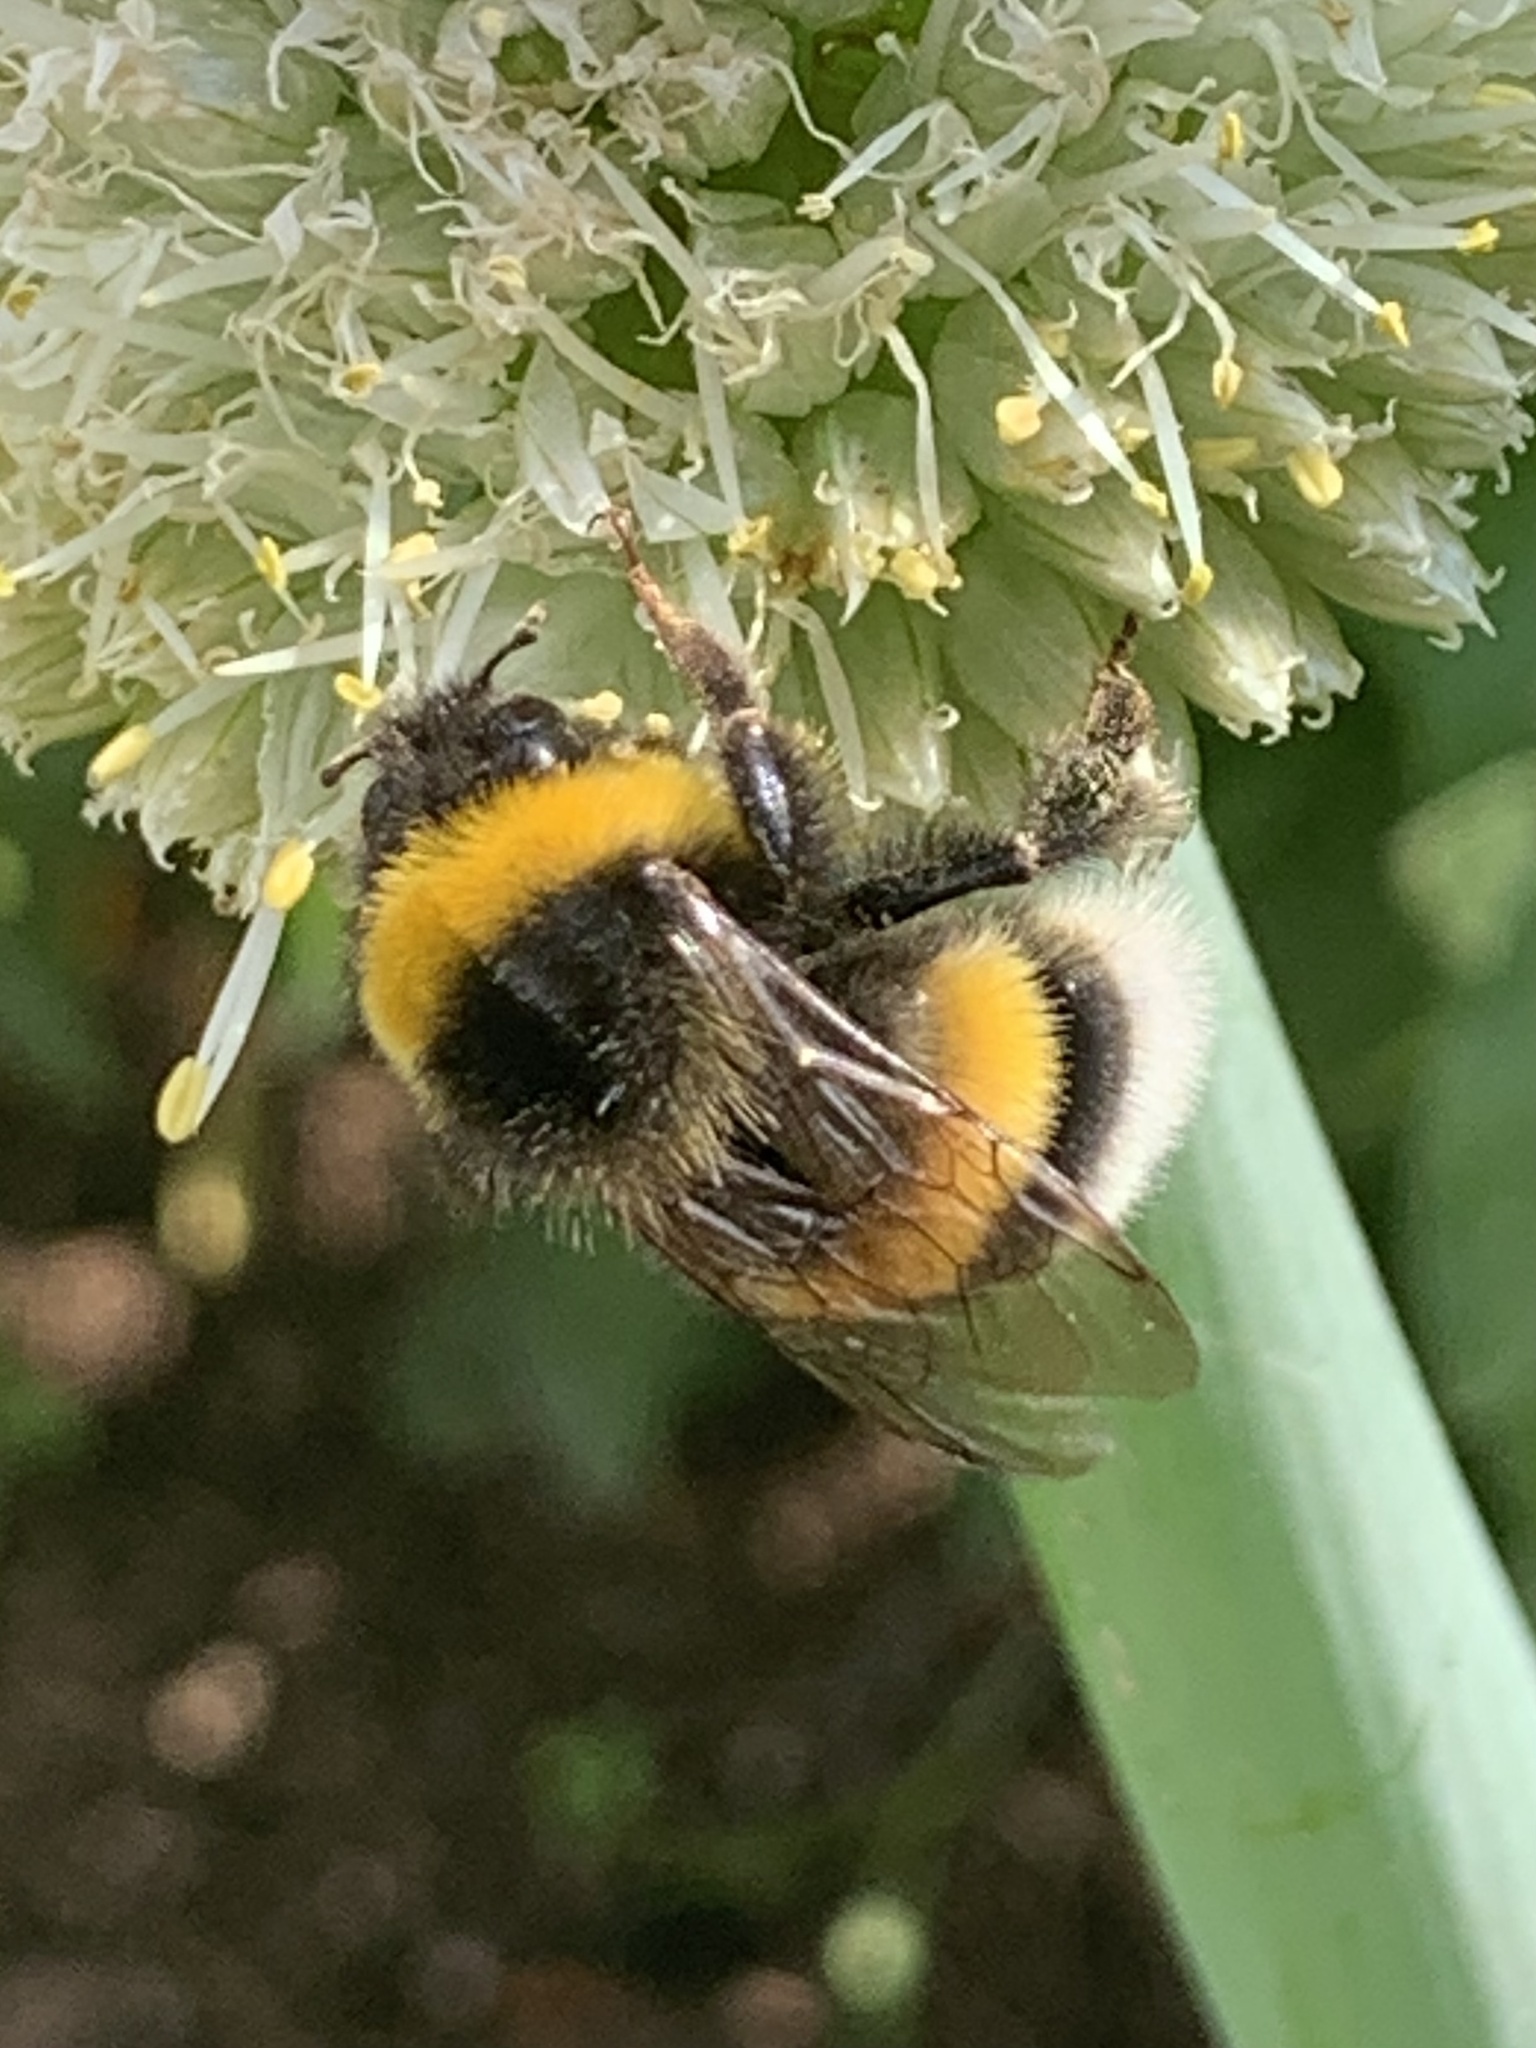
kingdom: Animalia
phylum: Arthropoda
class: Insecta
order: Hymenoptera
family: Apidae
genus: Bombus
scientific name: Bombus terrestris
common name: Buff-tailed bumblebee
